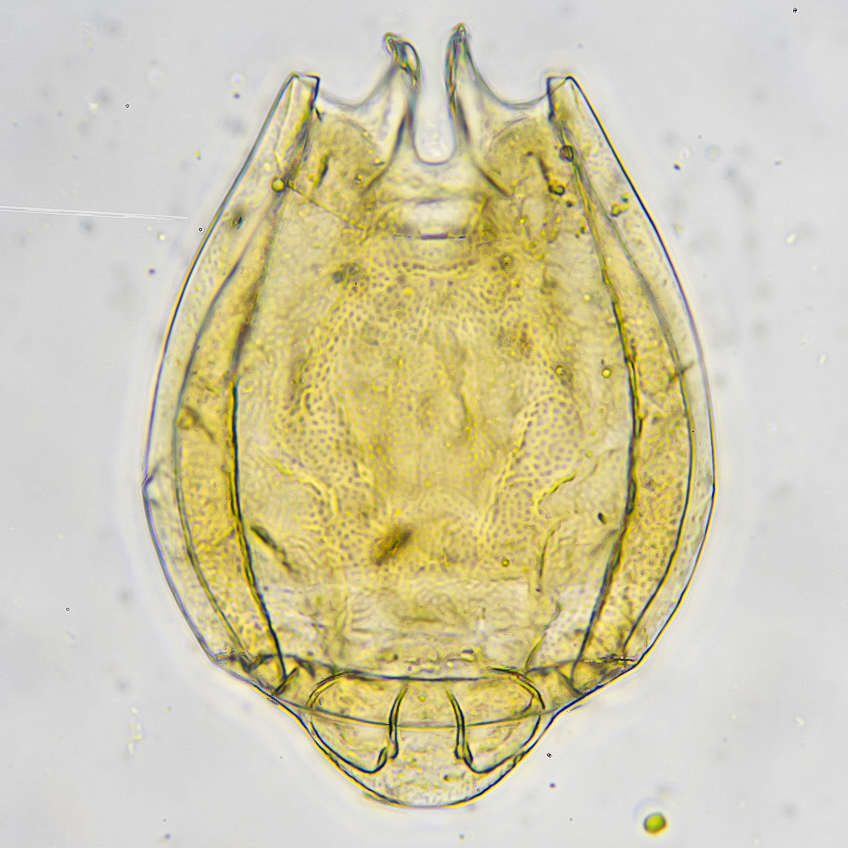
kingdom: Animalia
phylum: Rotifera
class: Eurotatoria
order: Ploima
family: Lecanidae
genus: Lecane
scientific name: Lecane quadridentata
